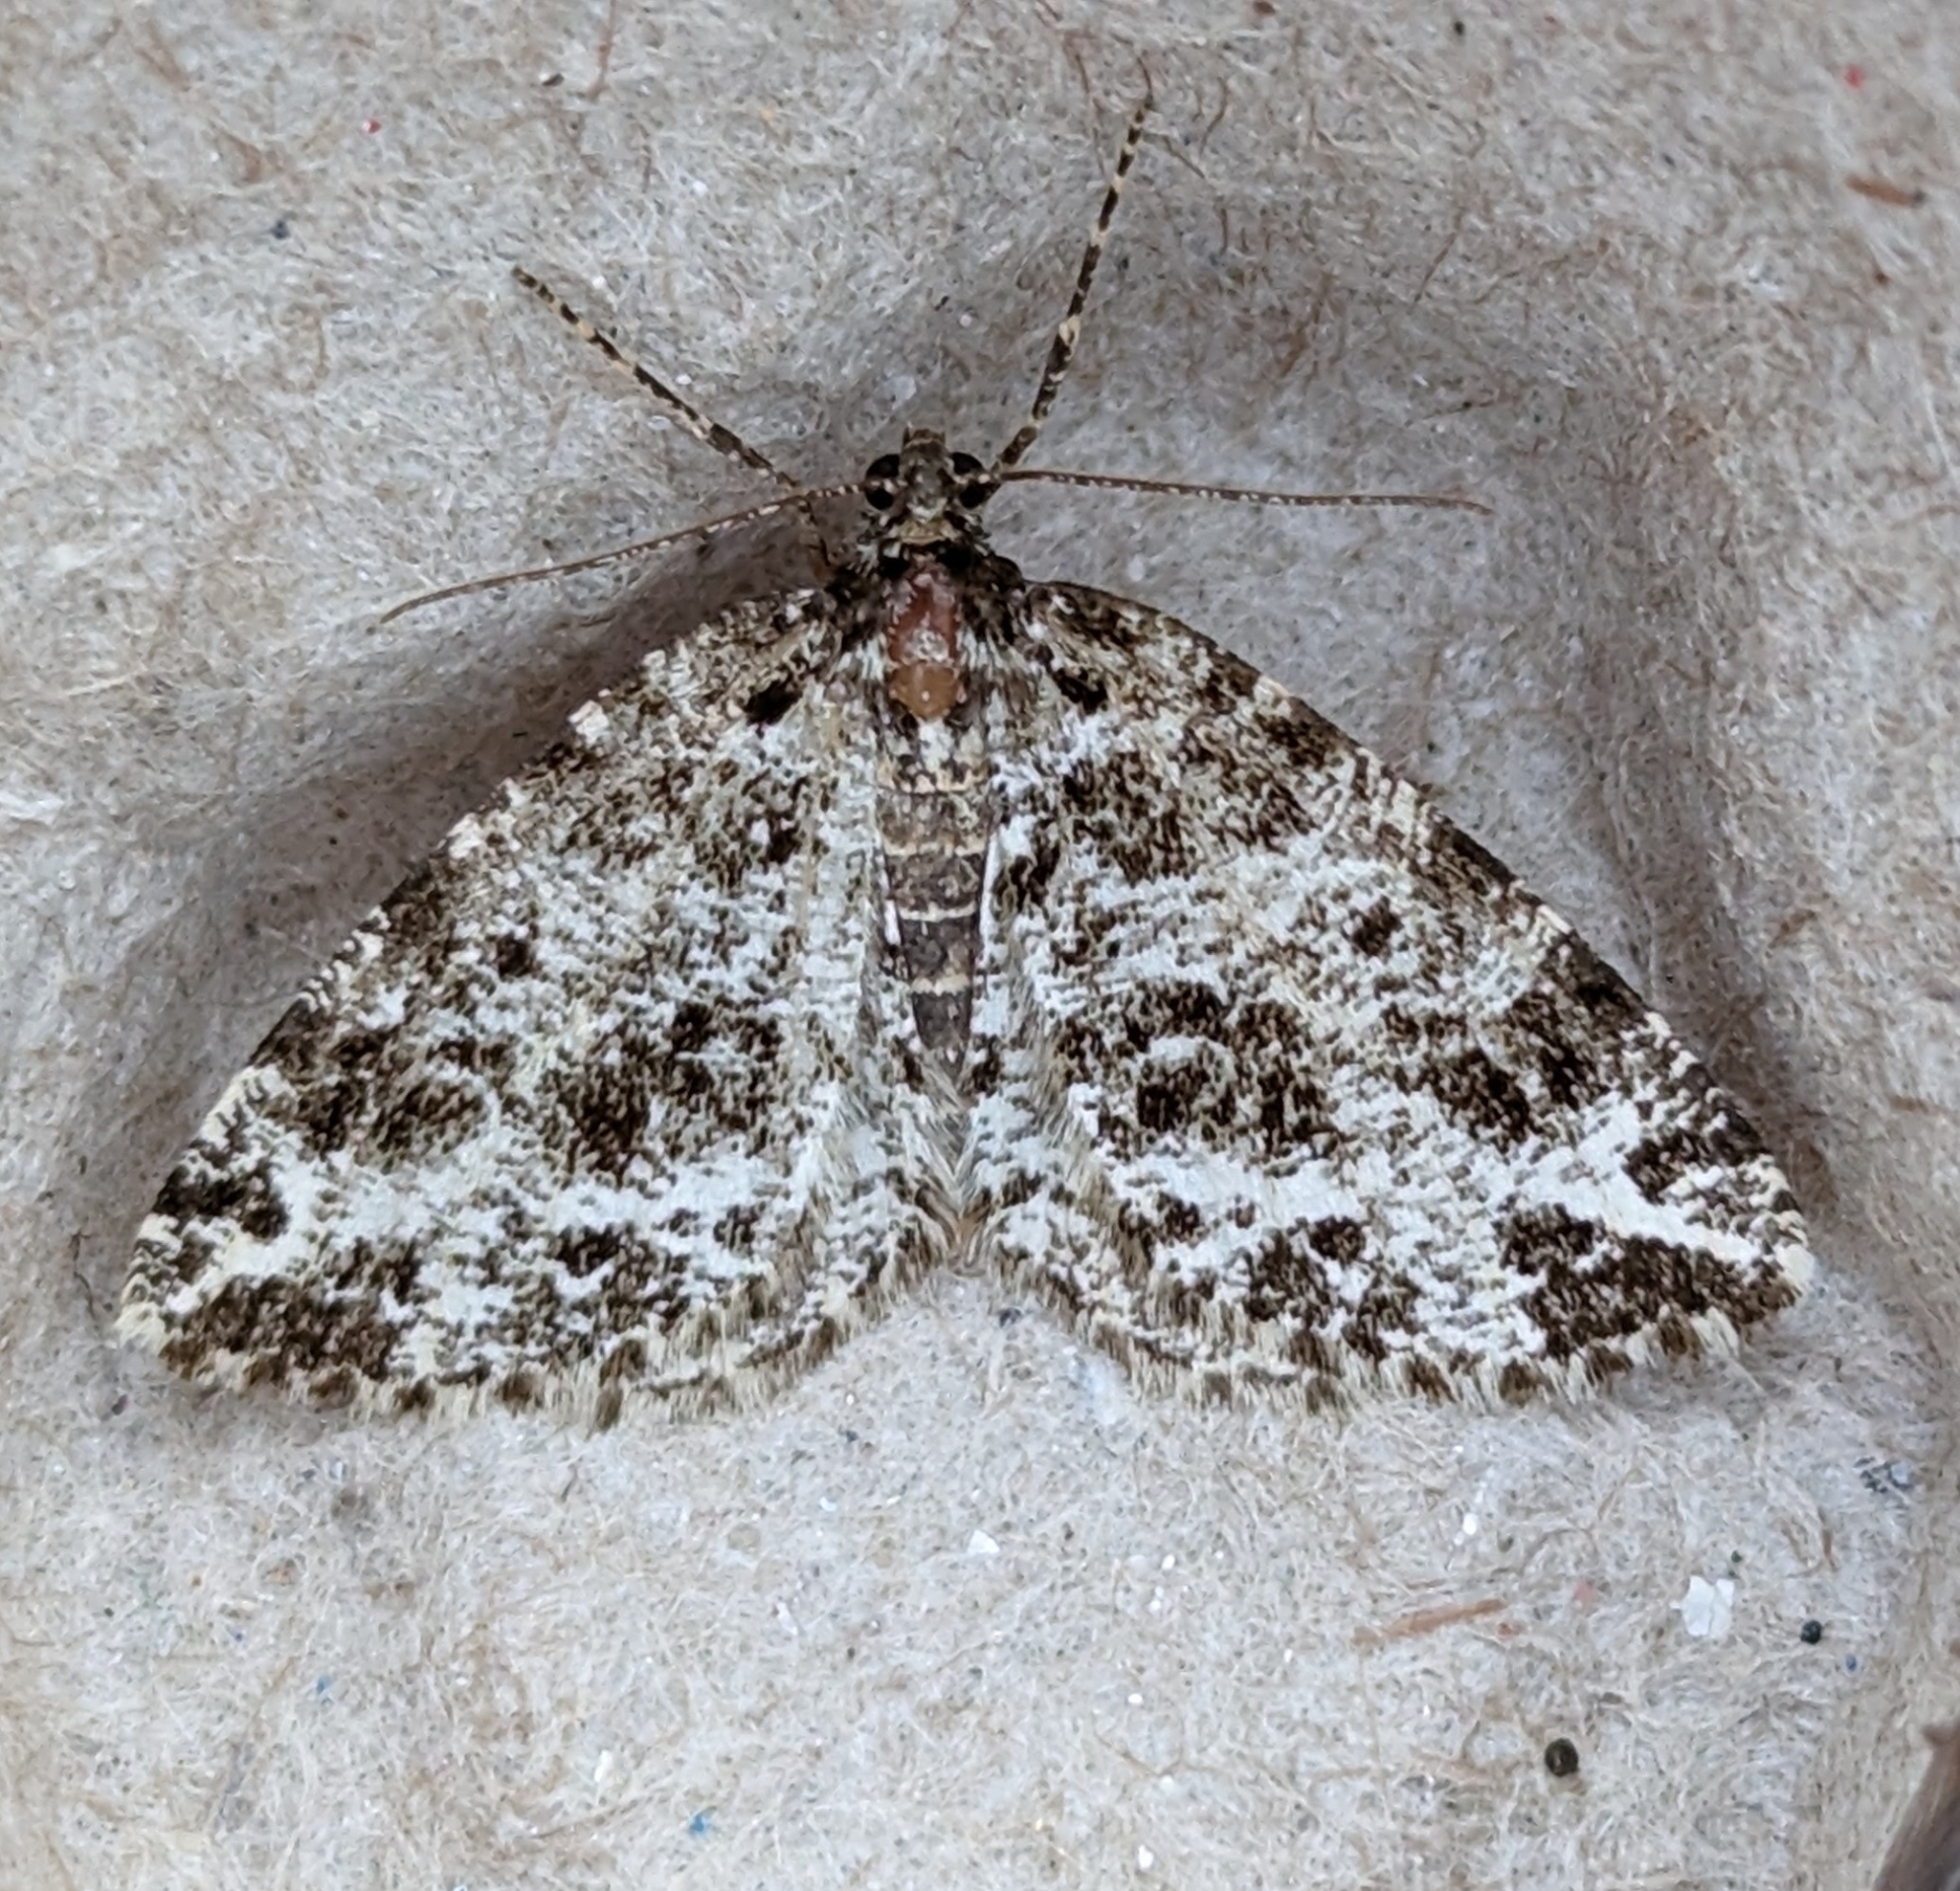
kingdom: Animalia
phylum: Arthropoda
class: Insecta
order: Lepidoptera
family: Geometridae
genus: Orthofidonia
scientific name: Orthofidonia tinctaria
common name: Marbled wave
